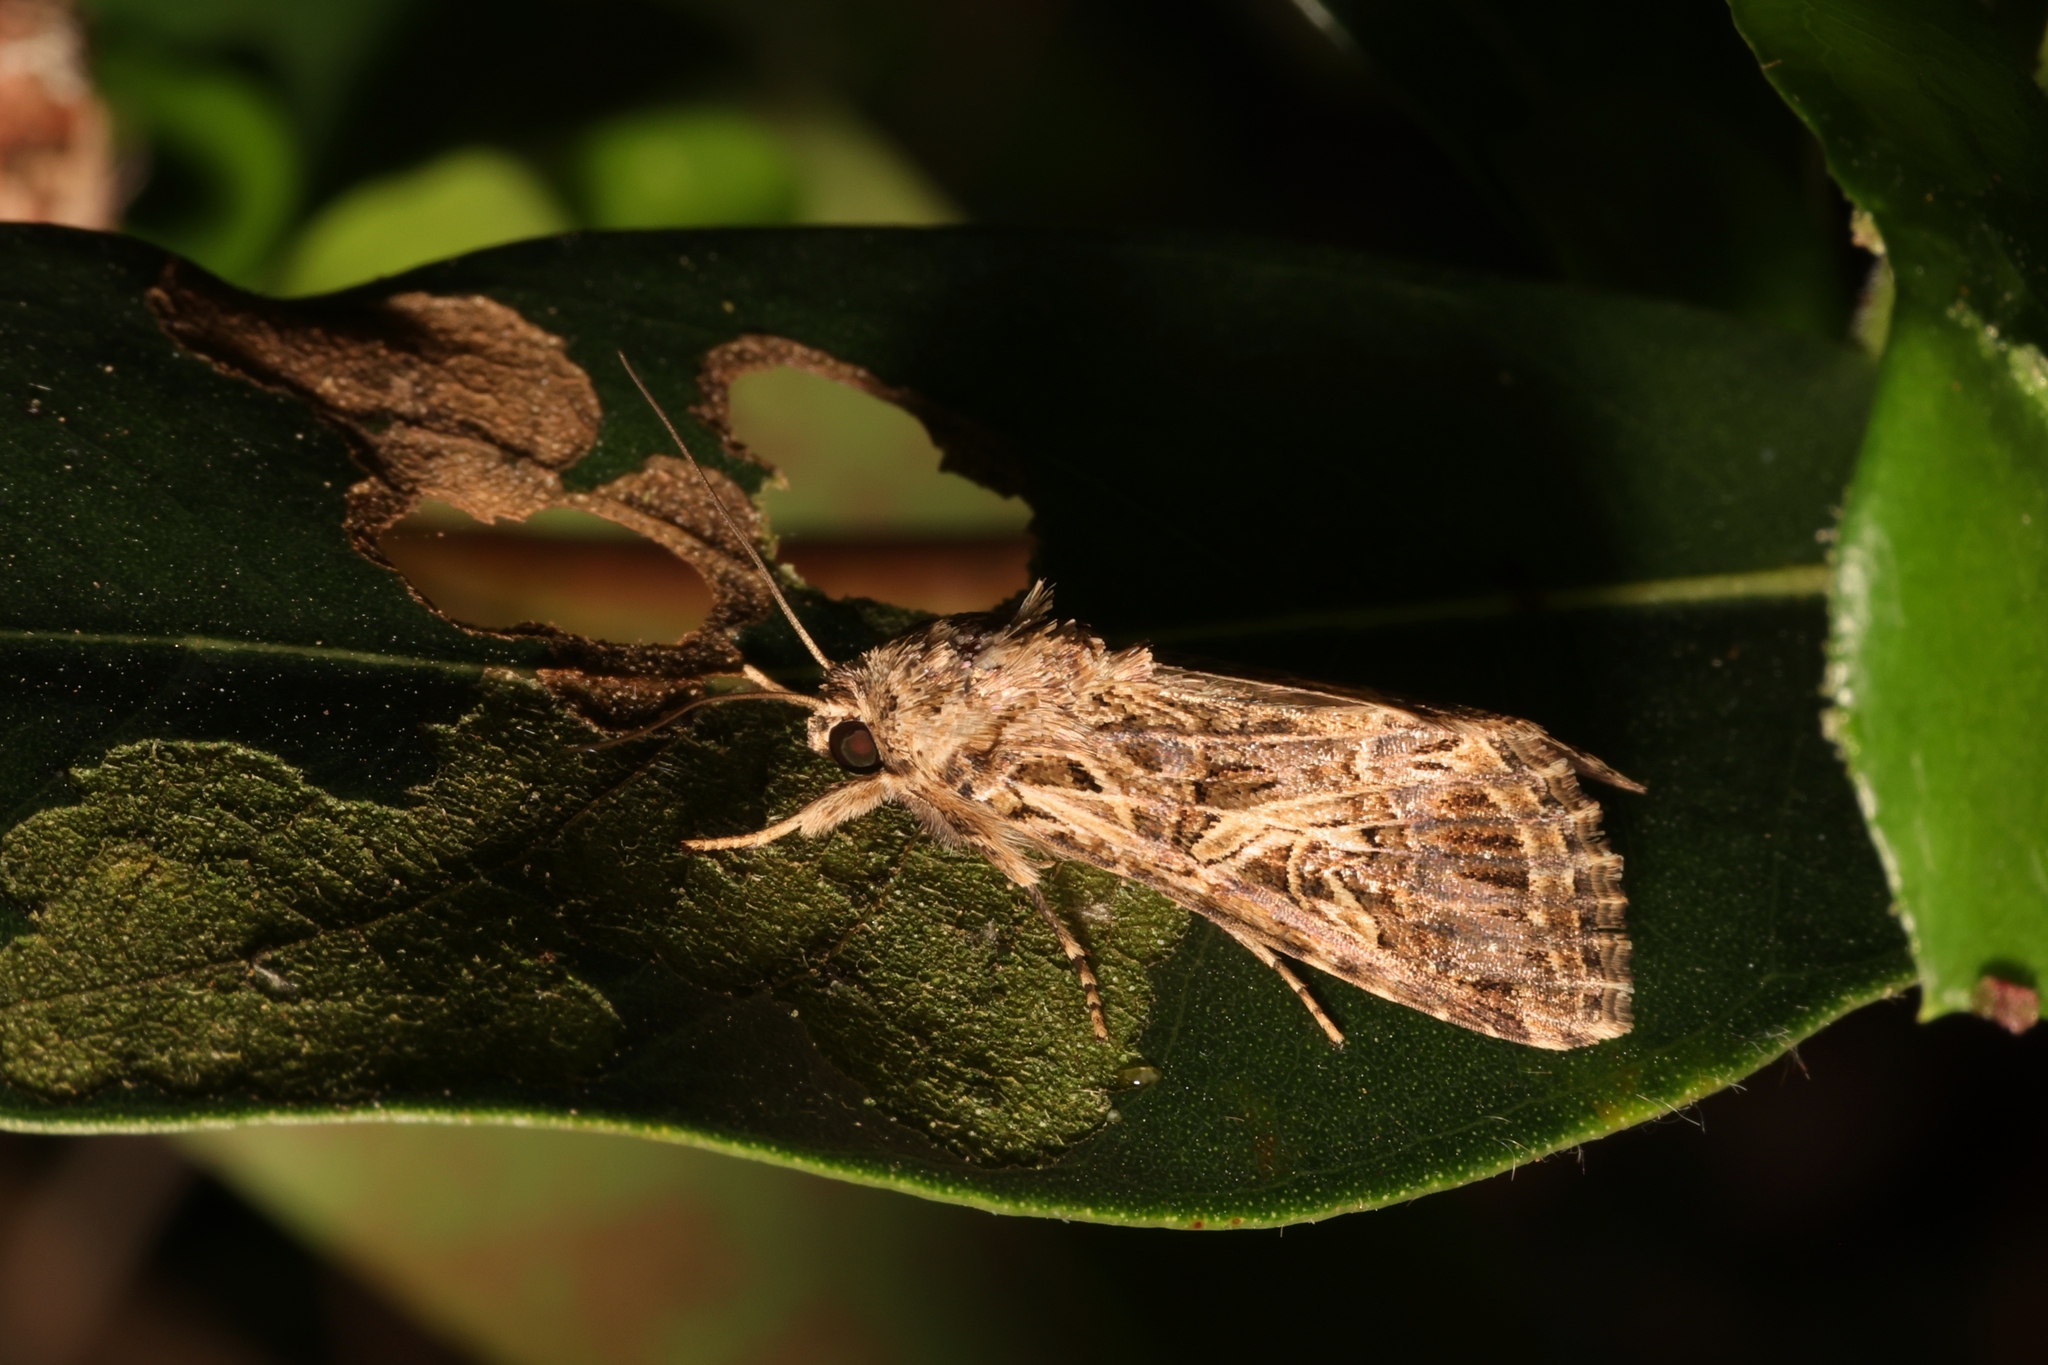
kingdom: Animalia
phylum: Arthropoda
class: Insecta
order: Lepidoptera
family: Noctuidae
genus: Spodoptera
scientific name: Spodoptera litura
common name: Asian cotton leafworm
